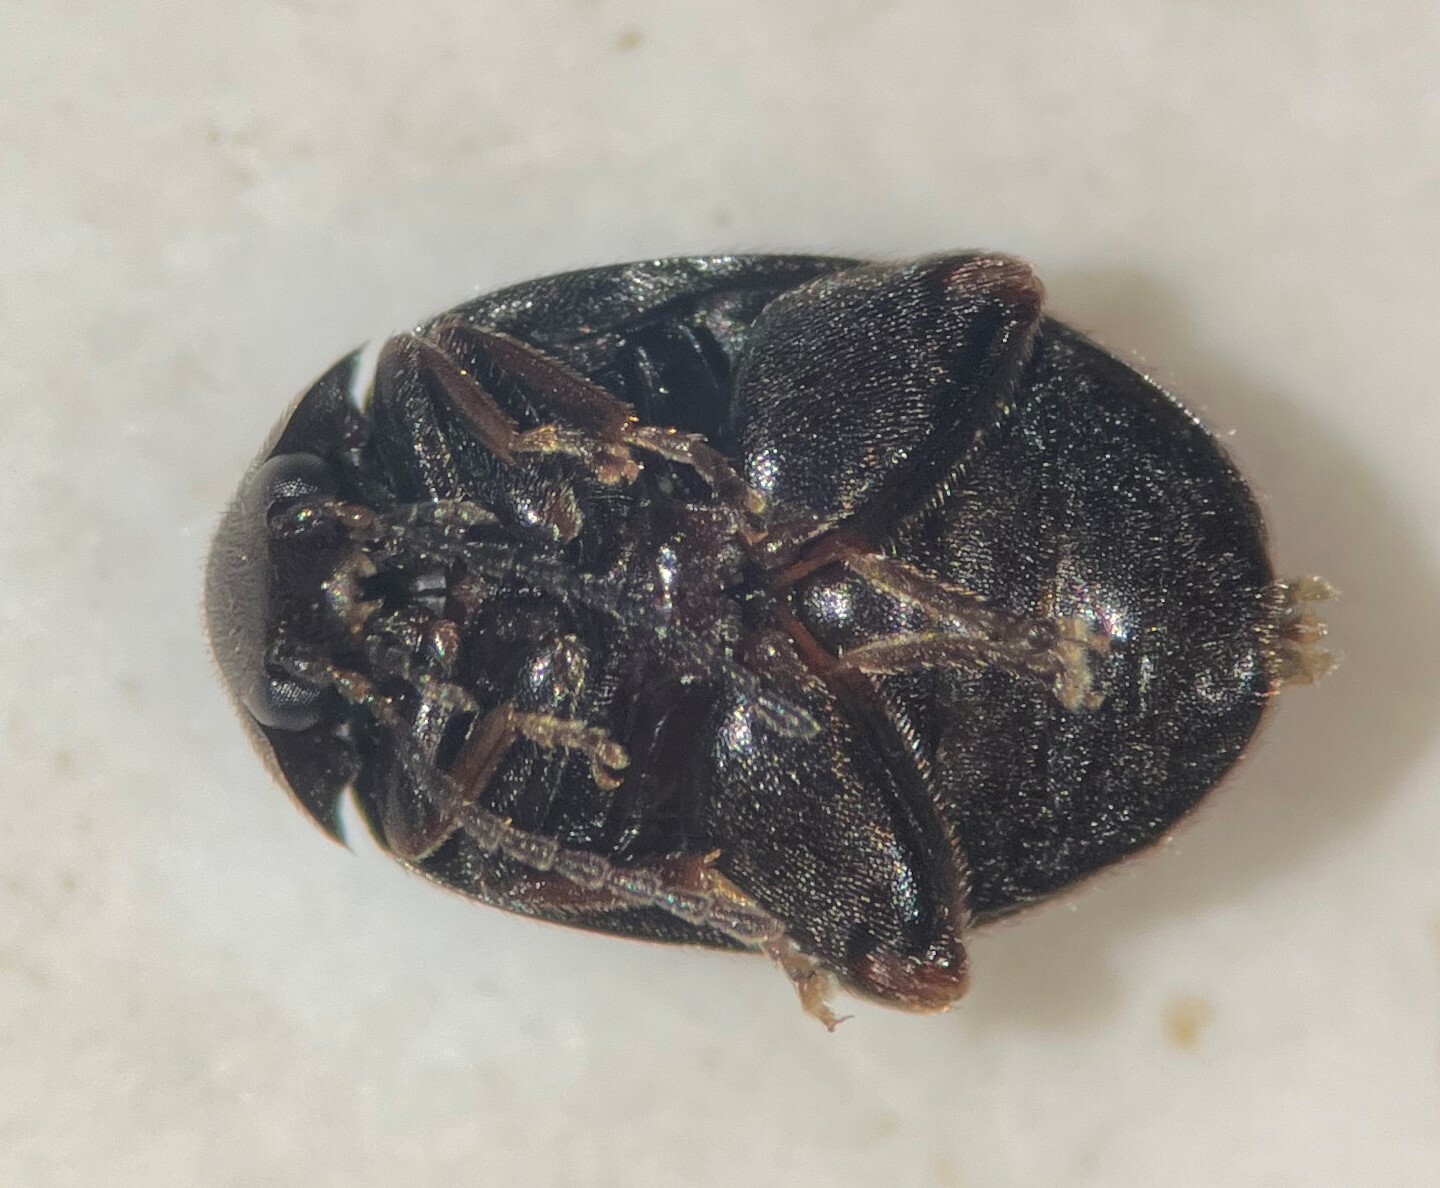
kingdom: Animalia
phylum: Arthropoda
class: Insecta
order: Coleoptera
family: Scirtidae
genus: Scirtes
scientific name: Scirtes tibialis
